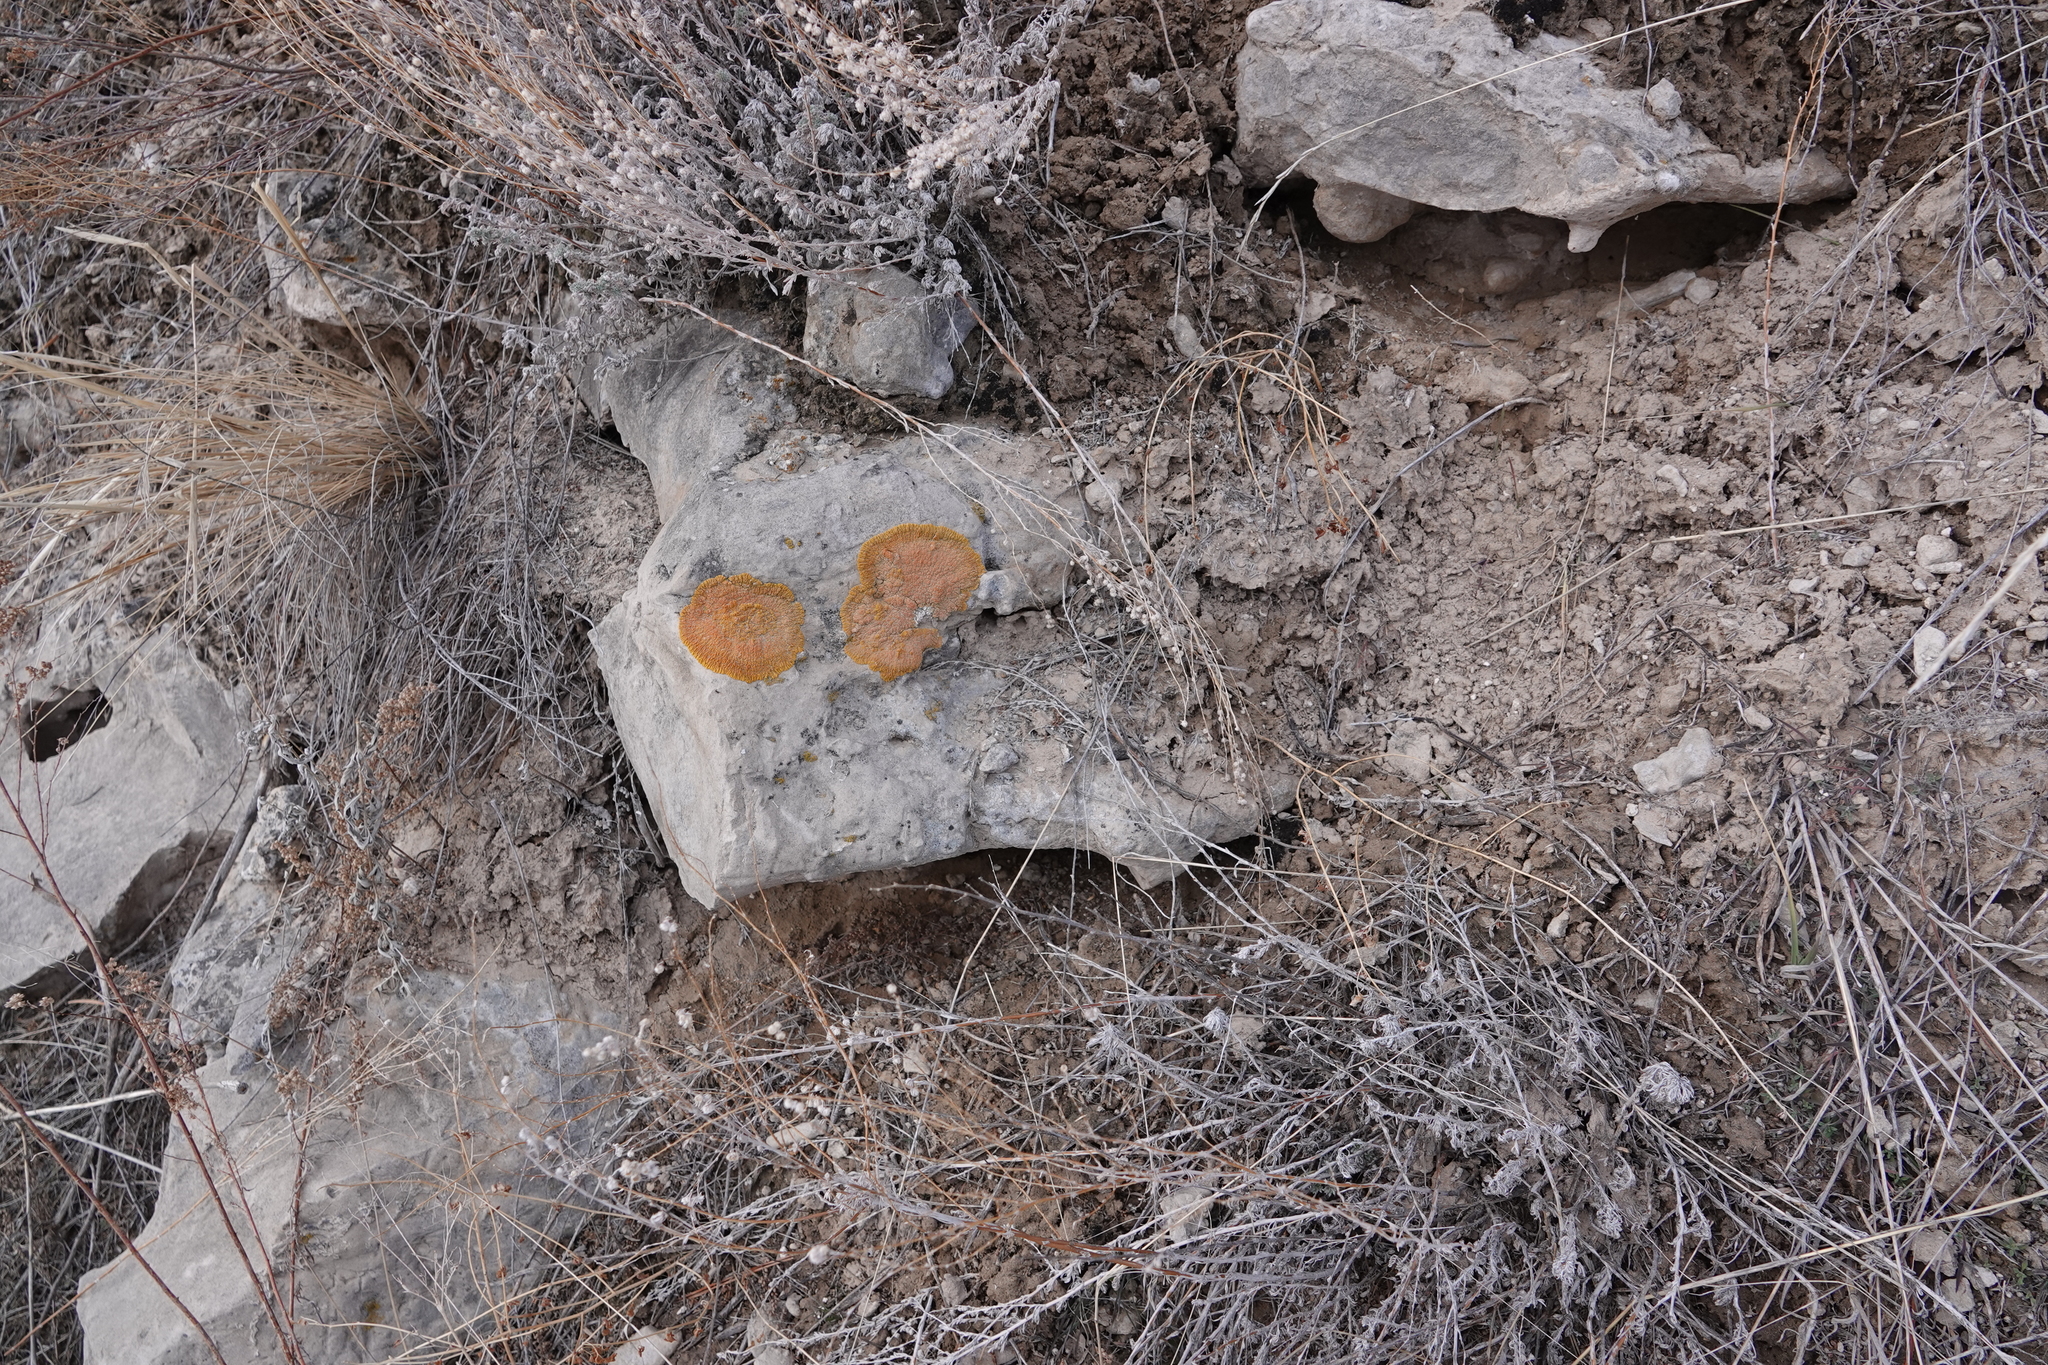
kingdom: Fungi
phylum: Ascomycota
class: Lecanoromycetes
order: Teloschistales
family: Teloschistaceae
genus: Golubkovia
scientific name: Golubkovia trachyphylla
